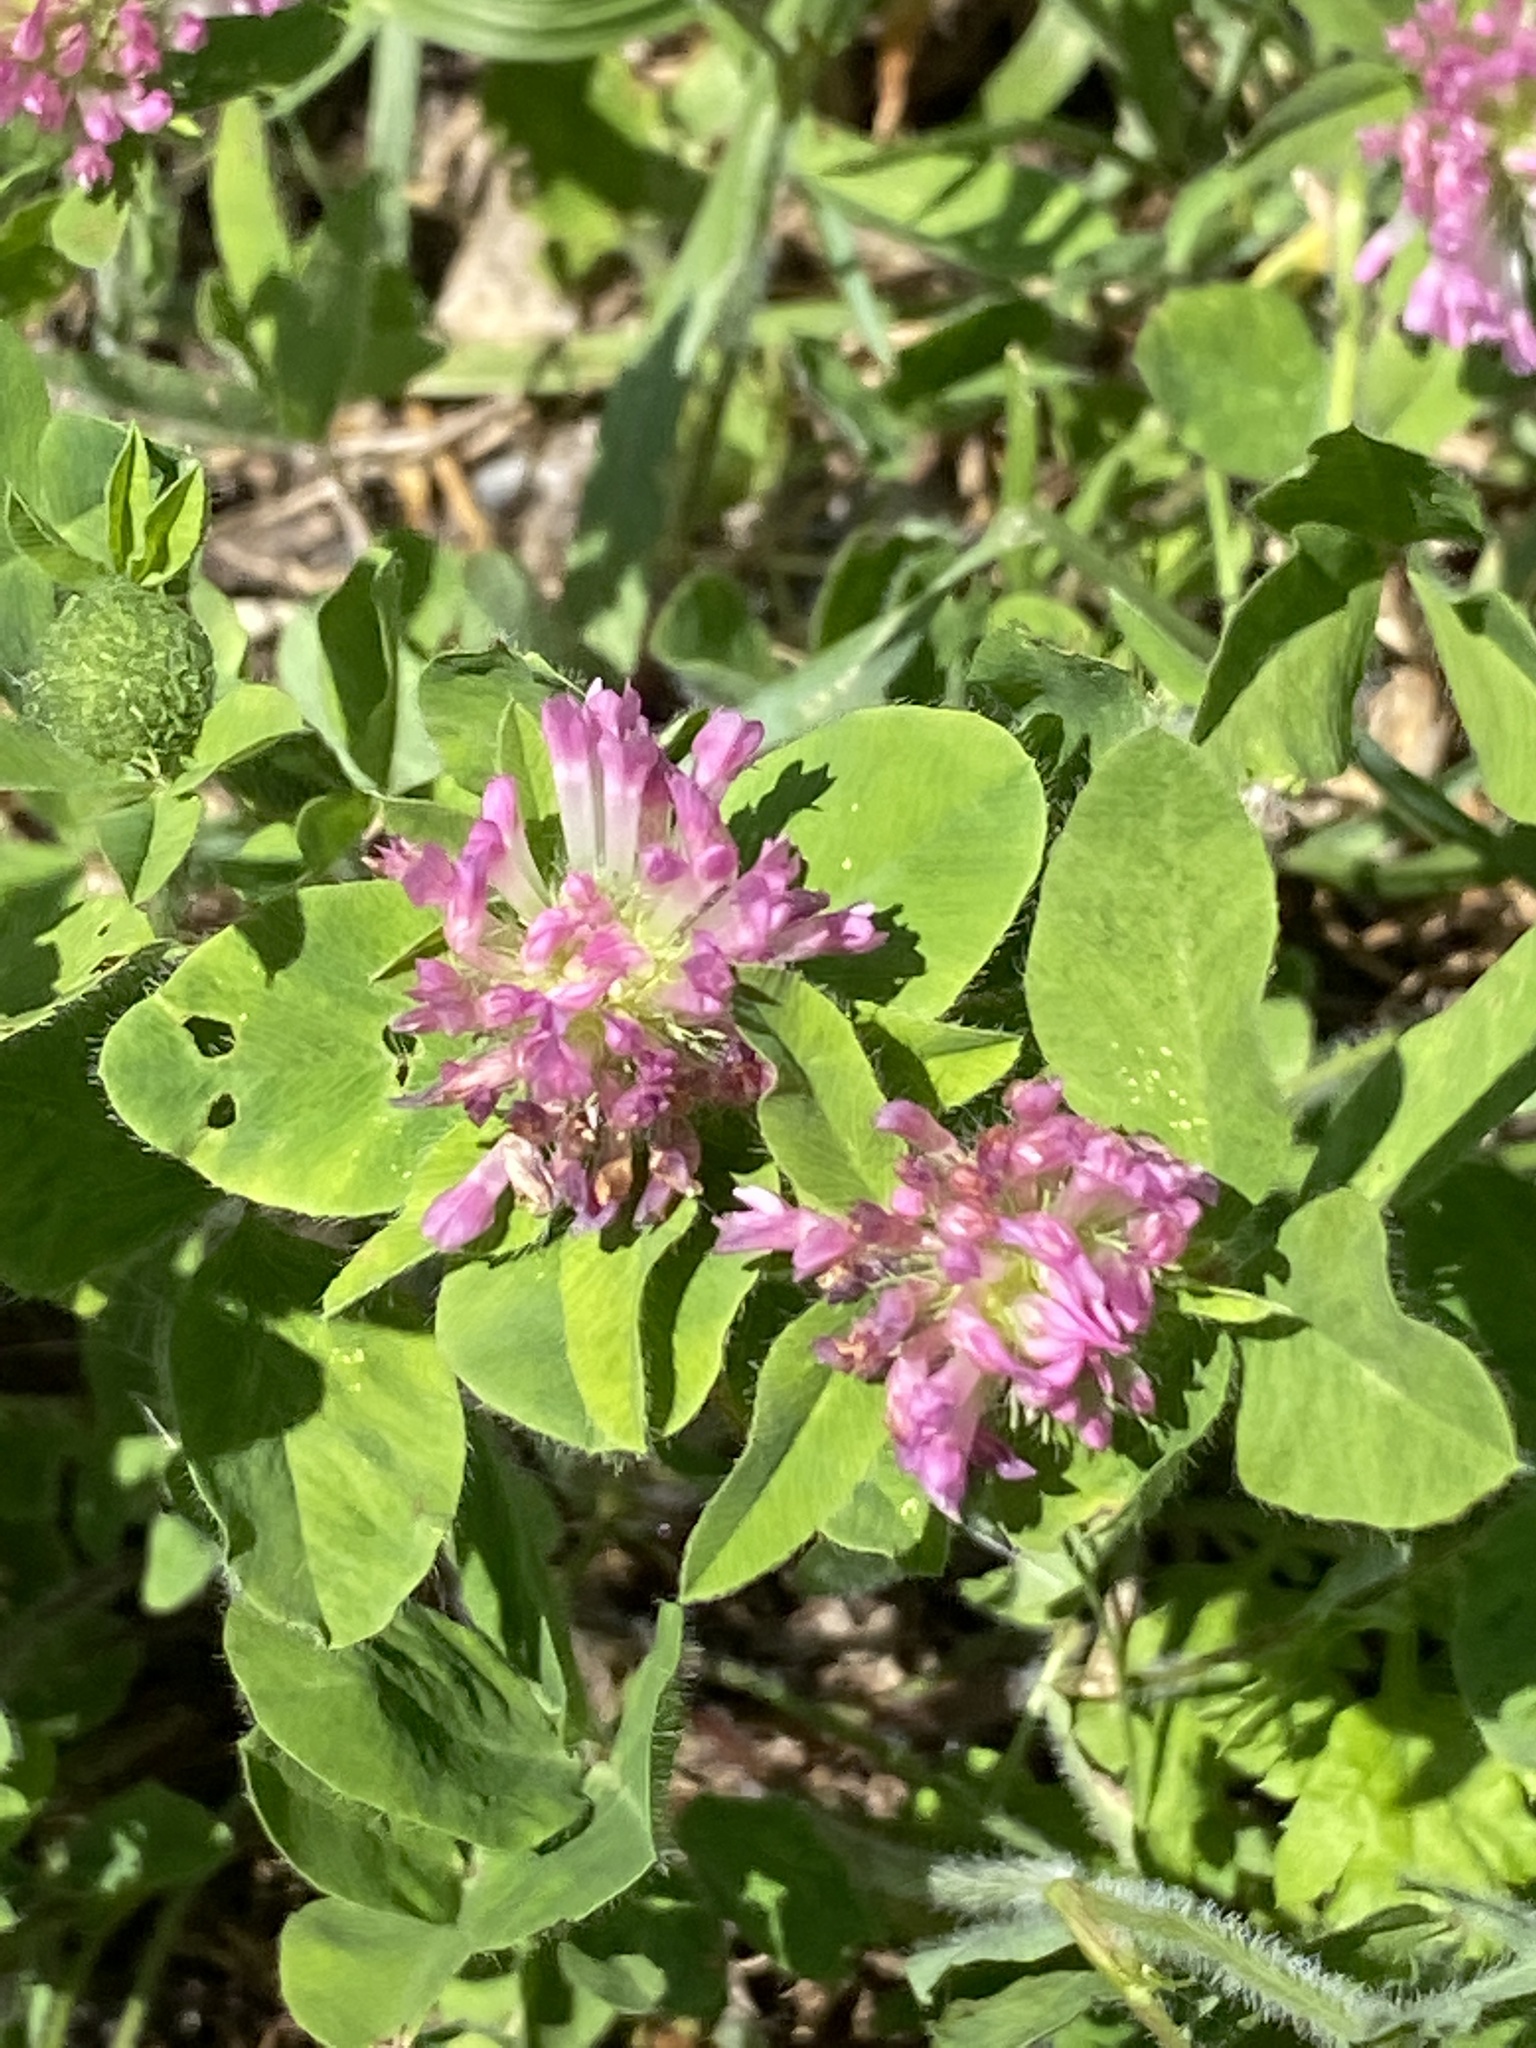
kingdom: Plantae
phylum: Tracheophyta
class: Magnoliopsida
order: Fabales
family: Fabaceae
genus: Trifolium
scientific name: Trifolium pratense
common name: Red clover
